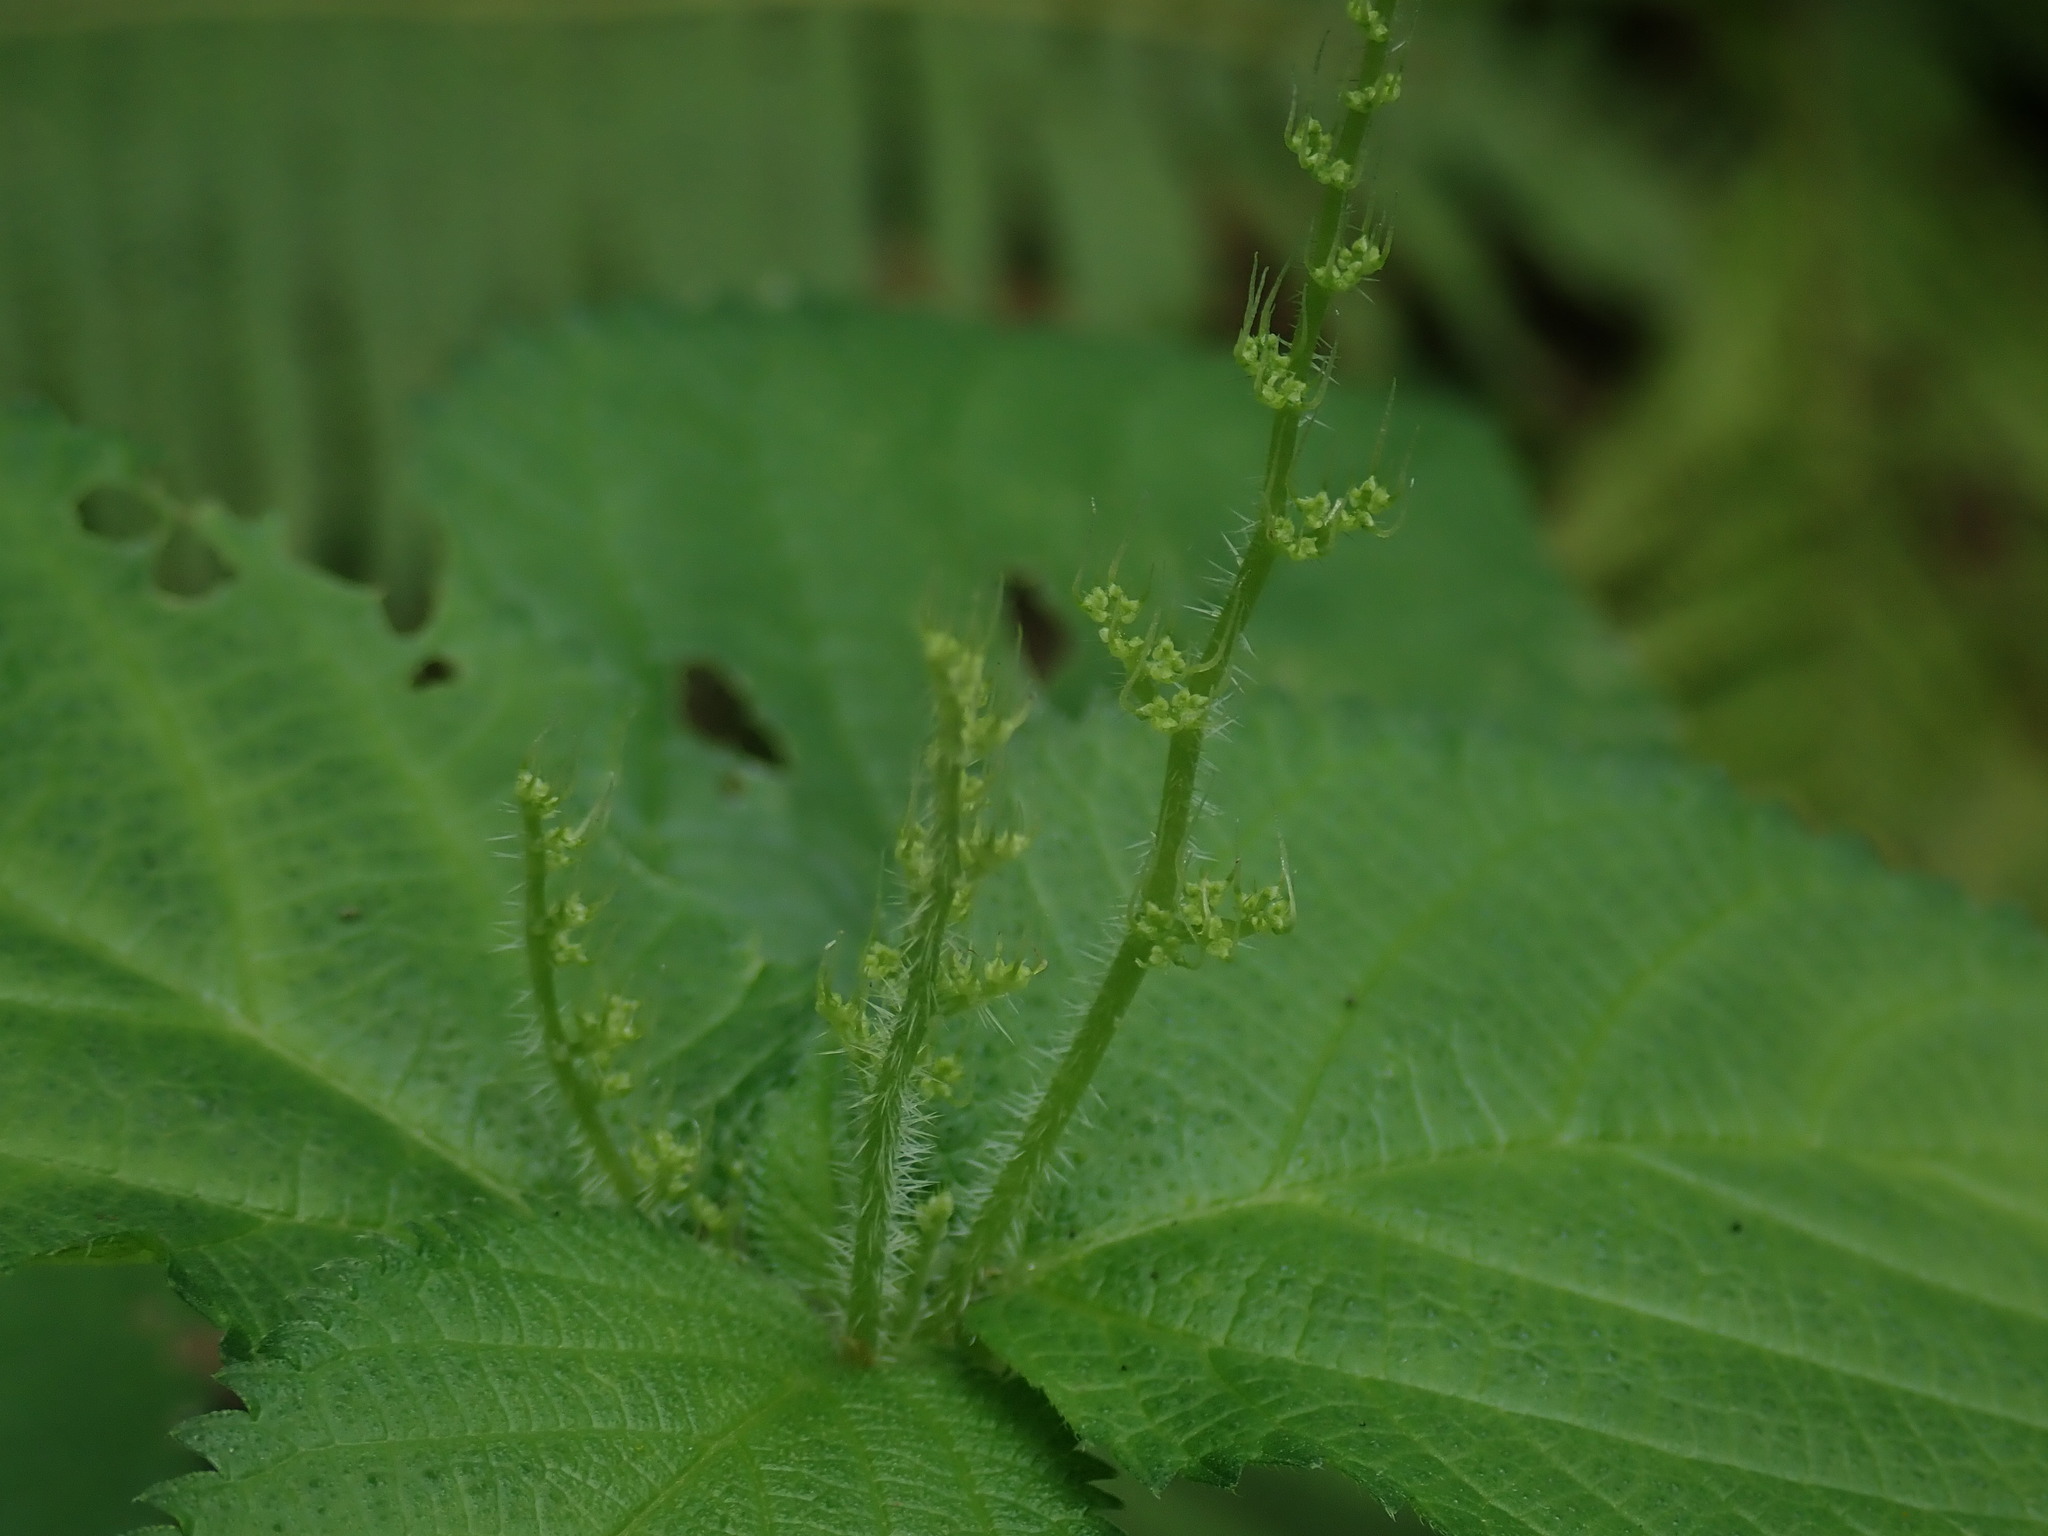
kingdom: Plantae
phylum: Tracheophyta
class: Magnoliopsida
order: Rosales
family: Urticaceae
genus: Laportea
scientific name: Laportea canadensis
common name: Canada nettle
